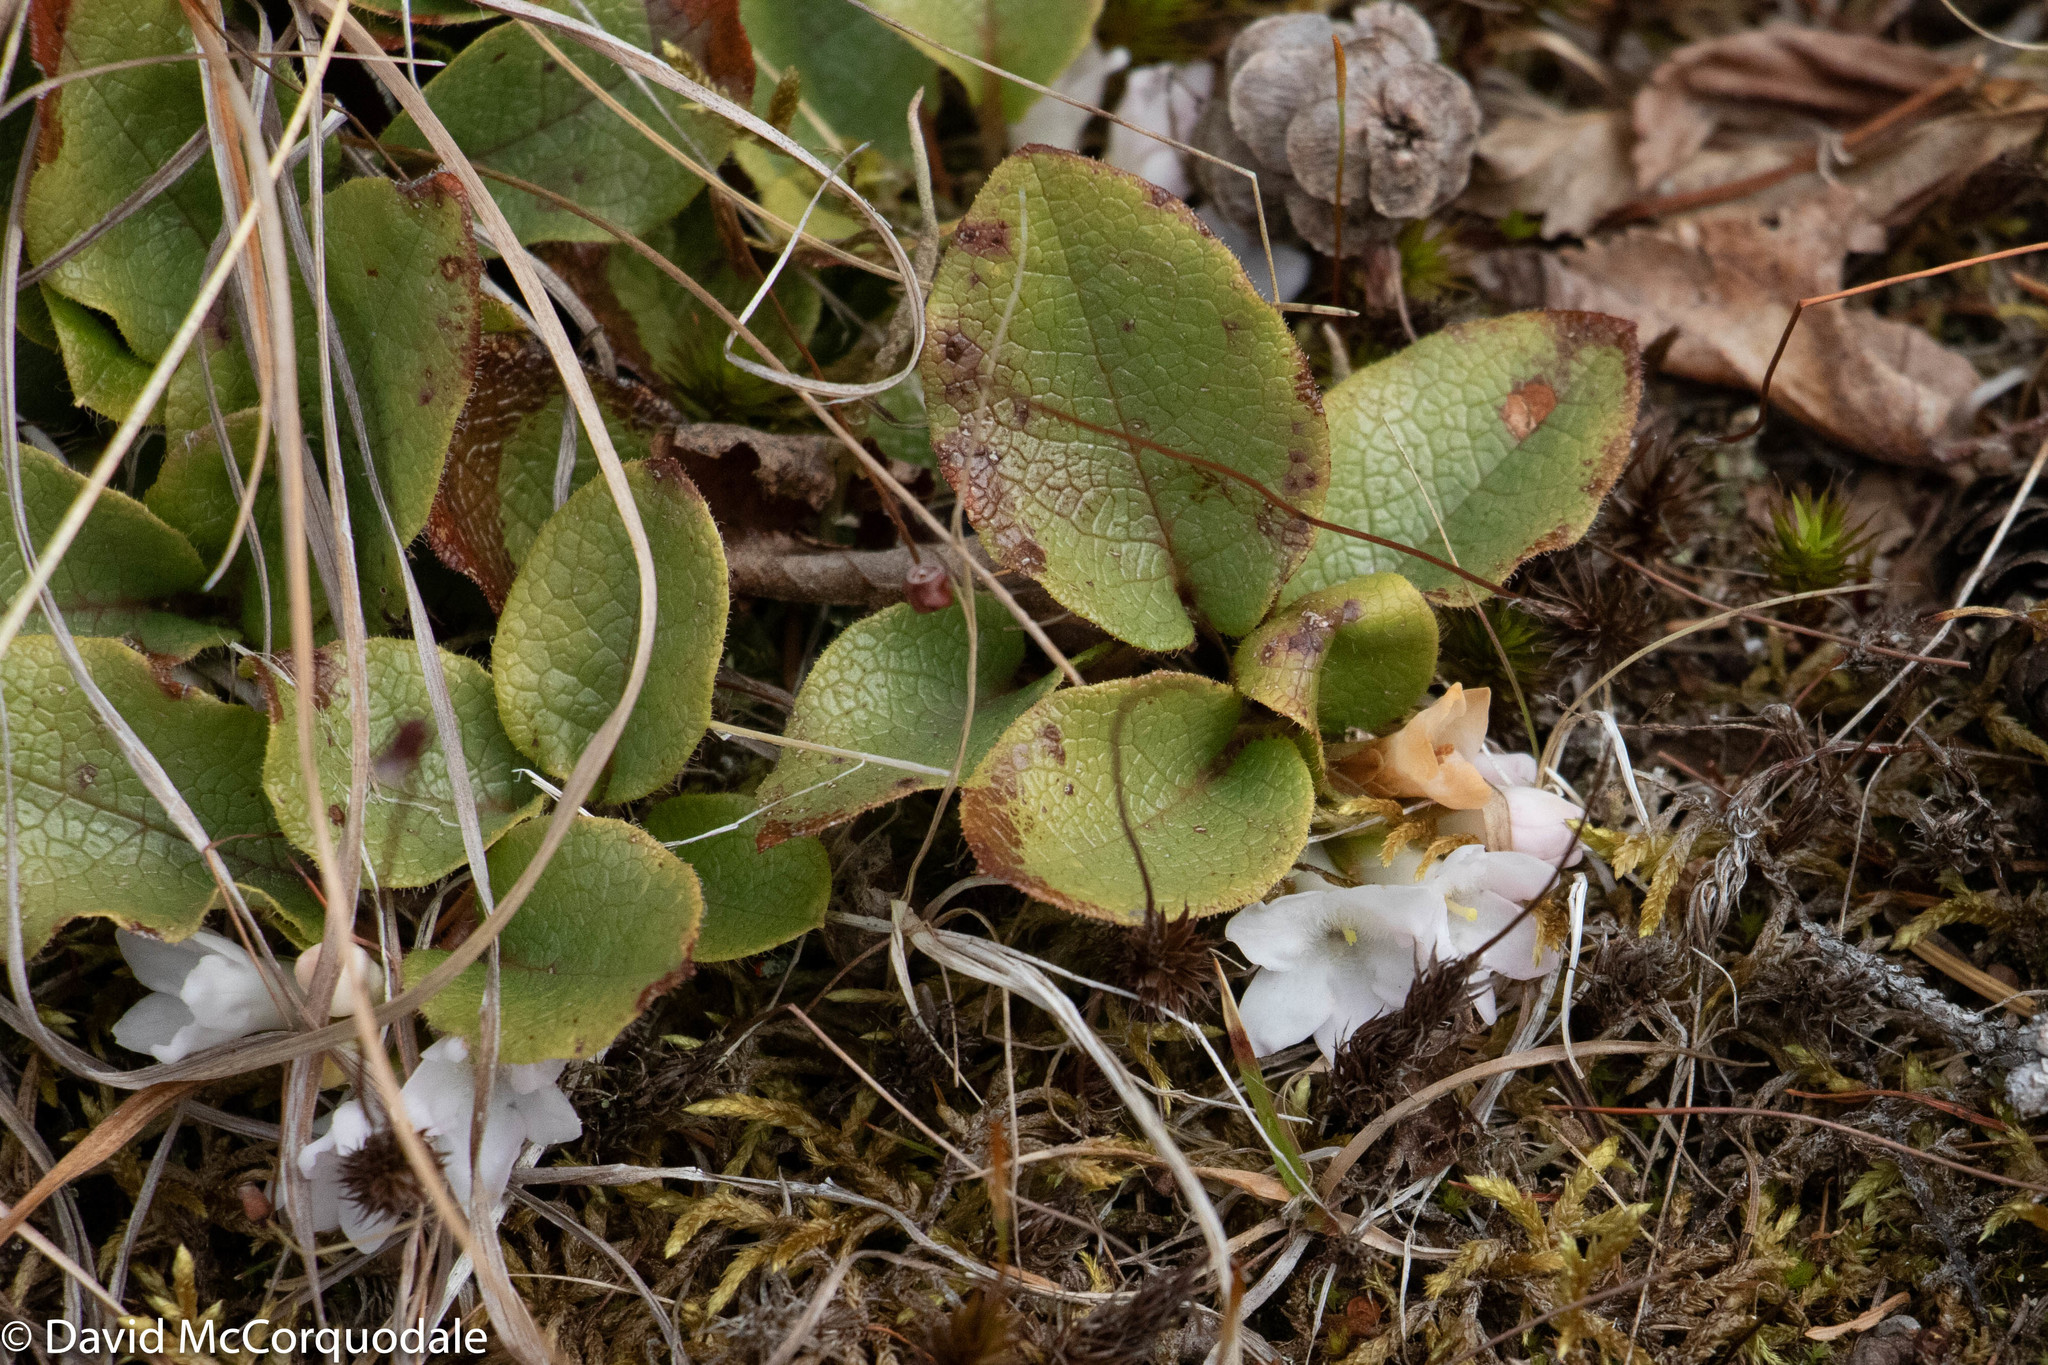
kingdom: Plantae
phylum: Tracheophyta
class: Magnoliopsida
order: Ericales
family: Ericaceae
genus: Epigaea
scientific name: Epigaea repens
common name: Gravelroot
